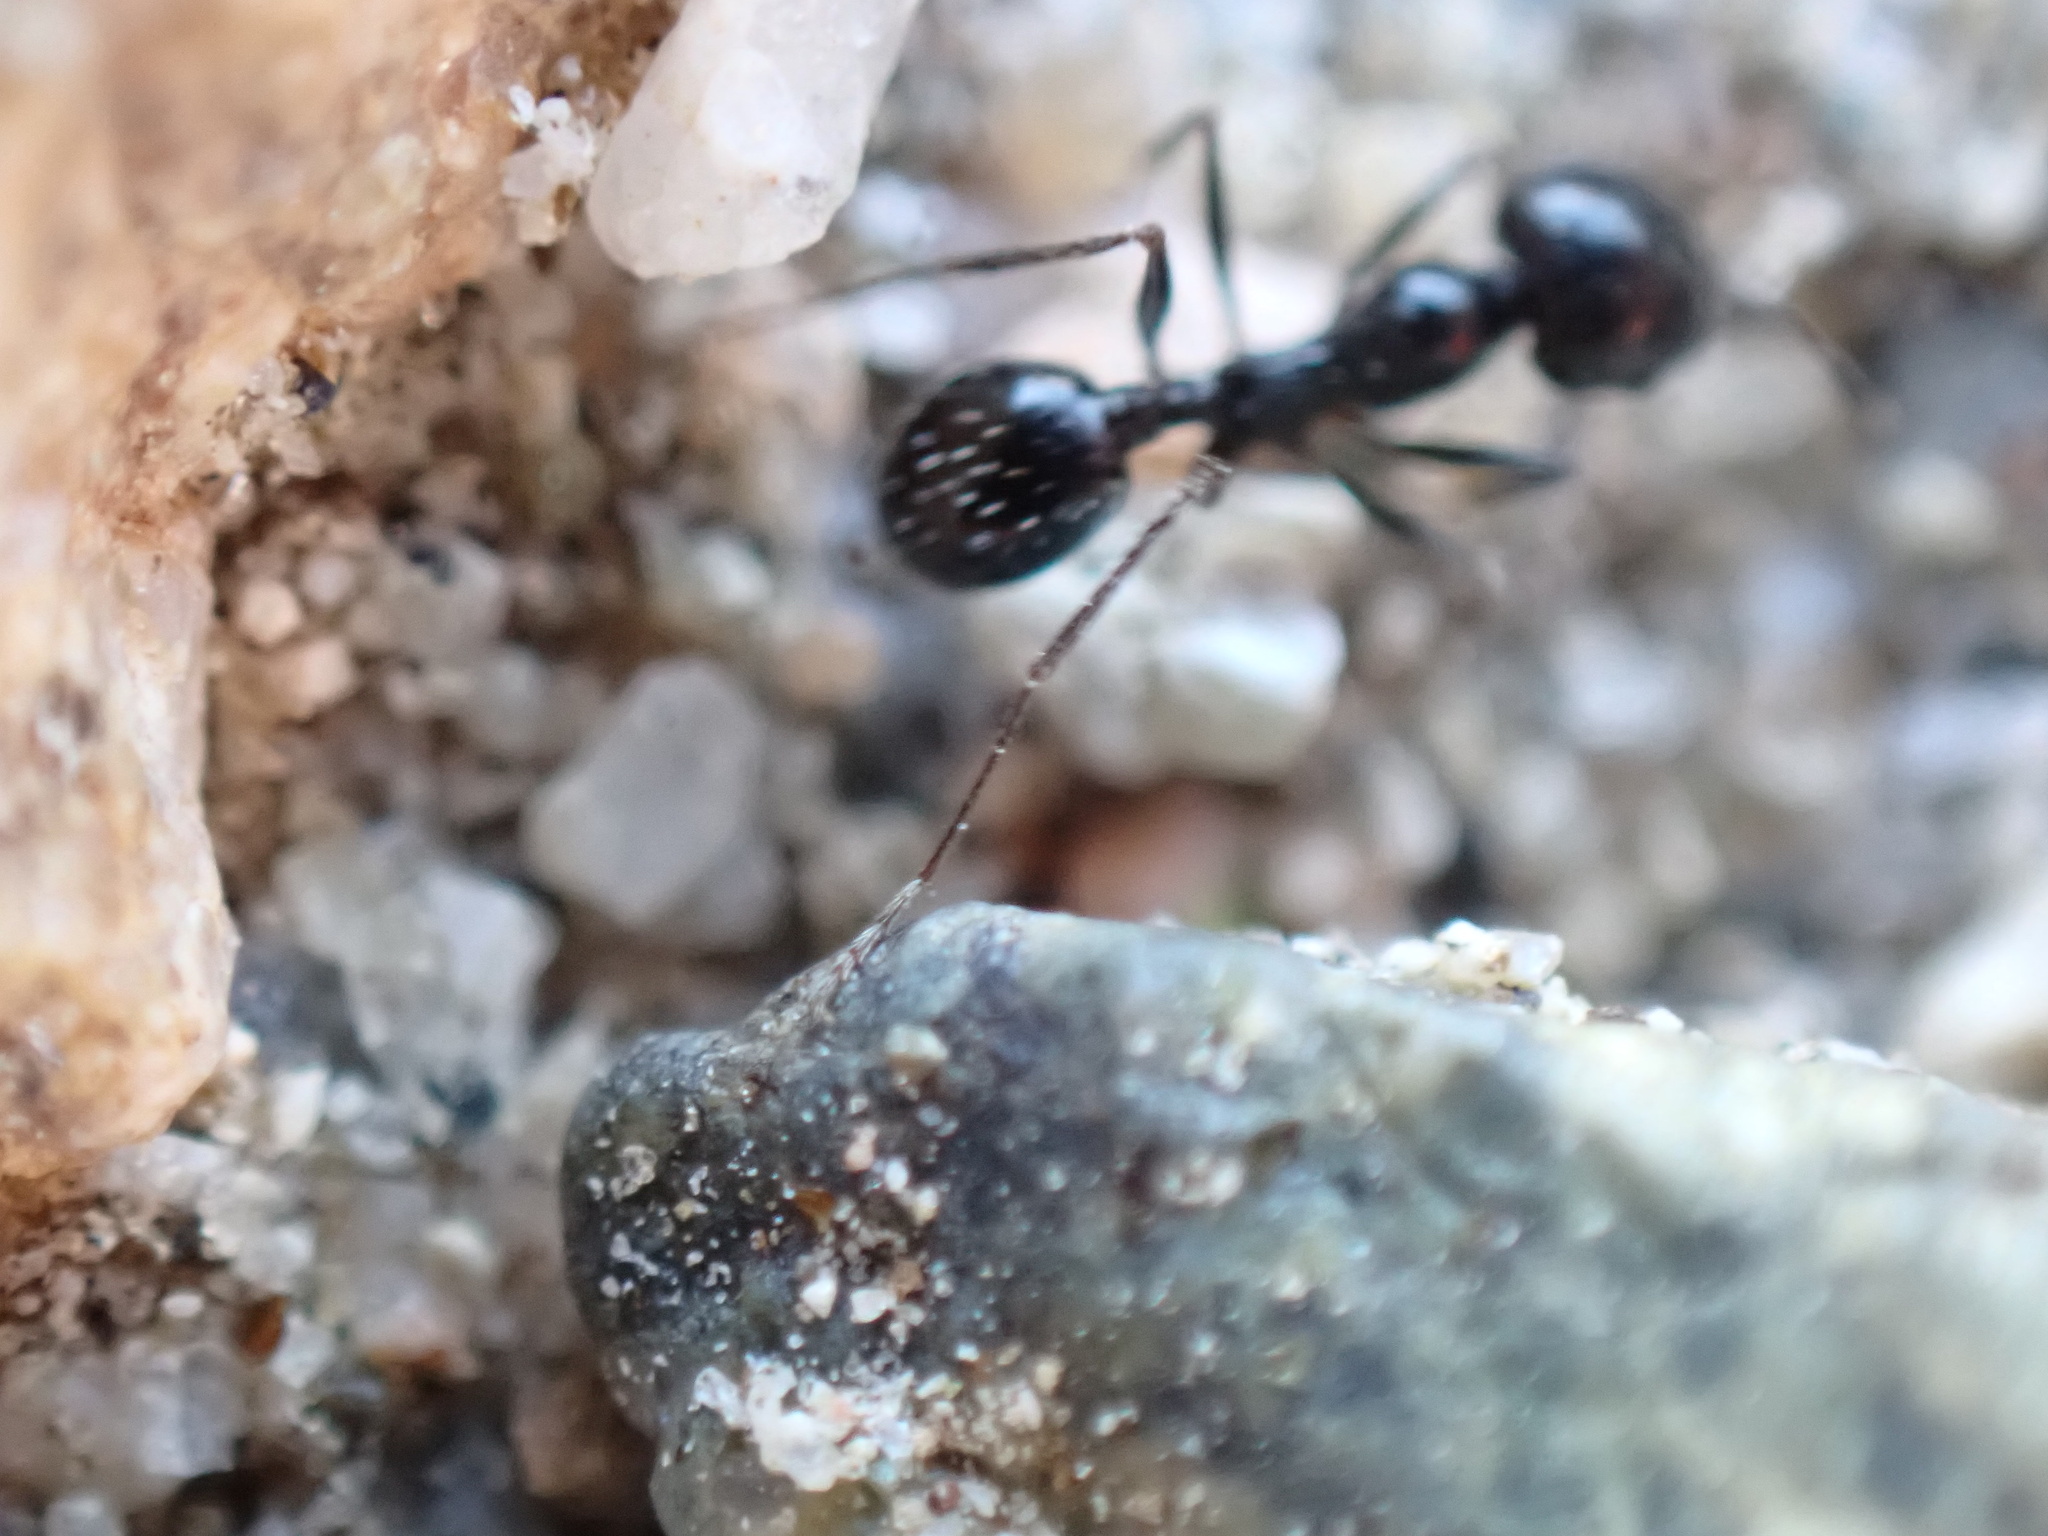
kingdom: Animalia
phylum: Arthropoda
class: Insecta
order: Hymenoptera
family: Formicidae
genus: Messor
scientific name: Messor pergandei
